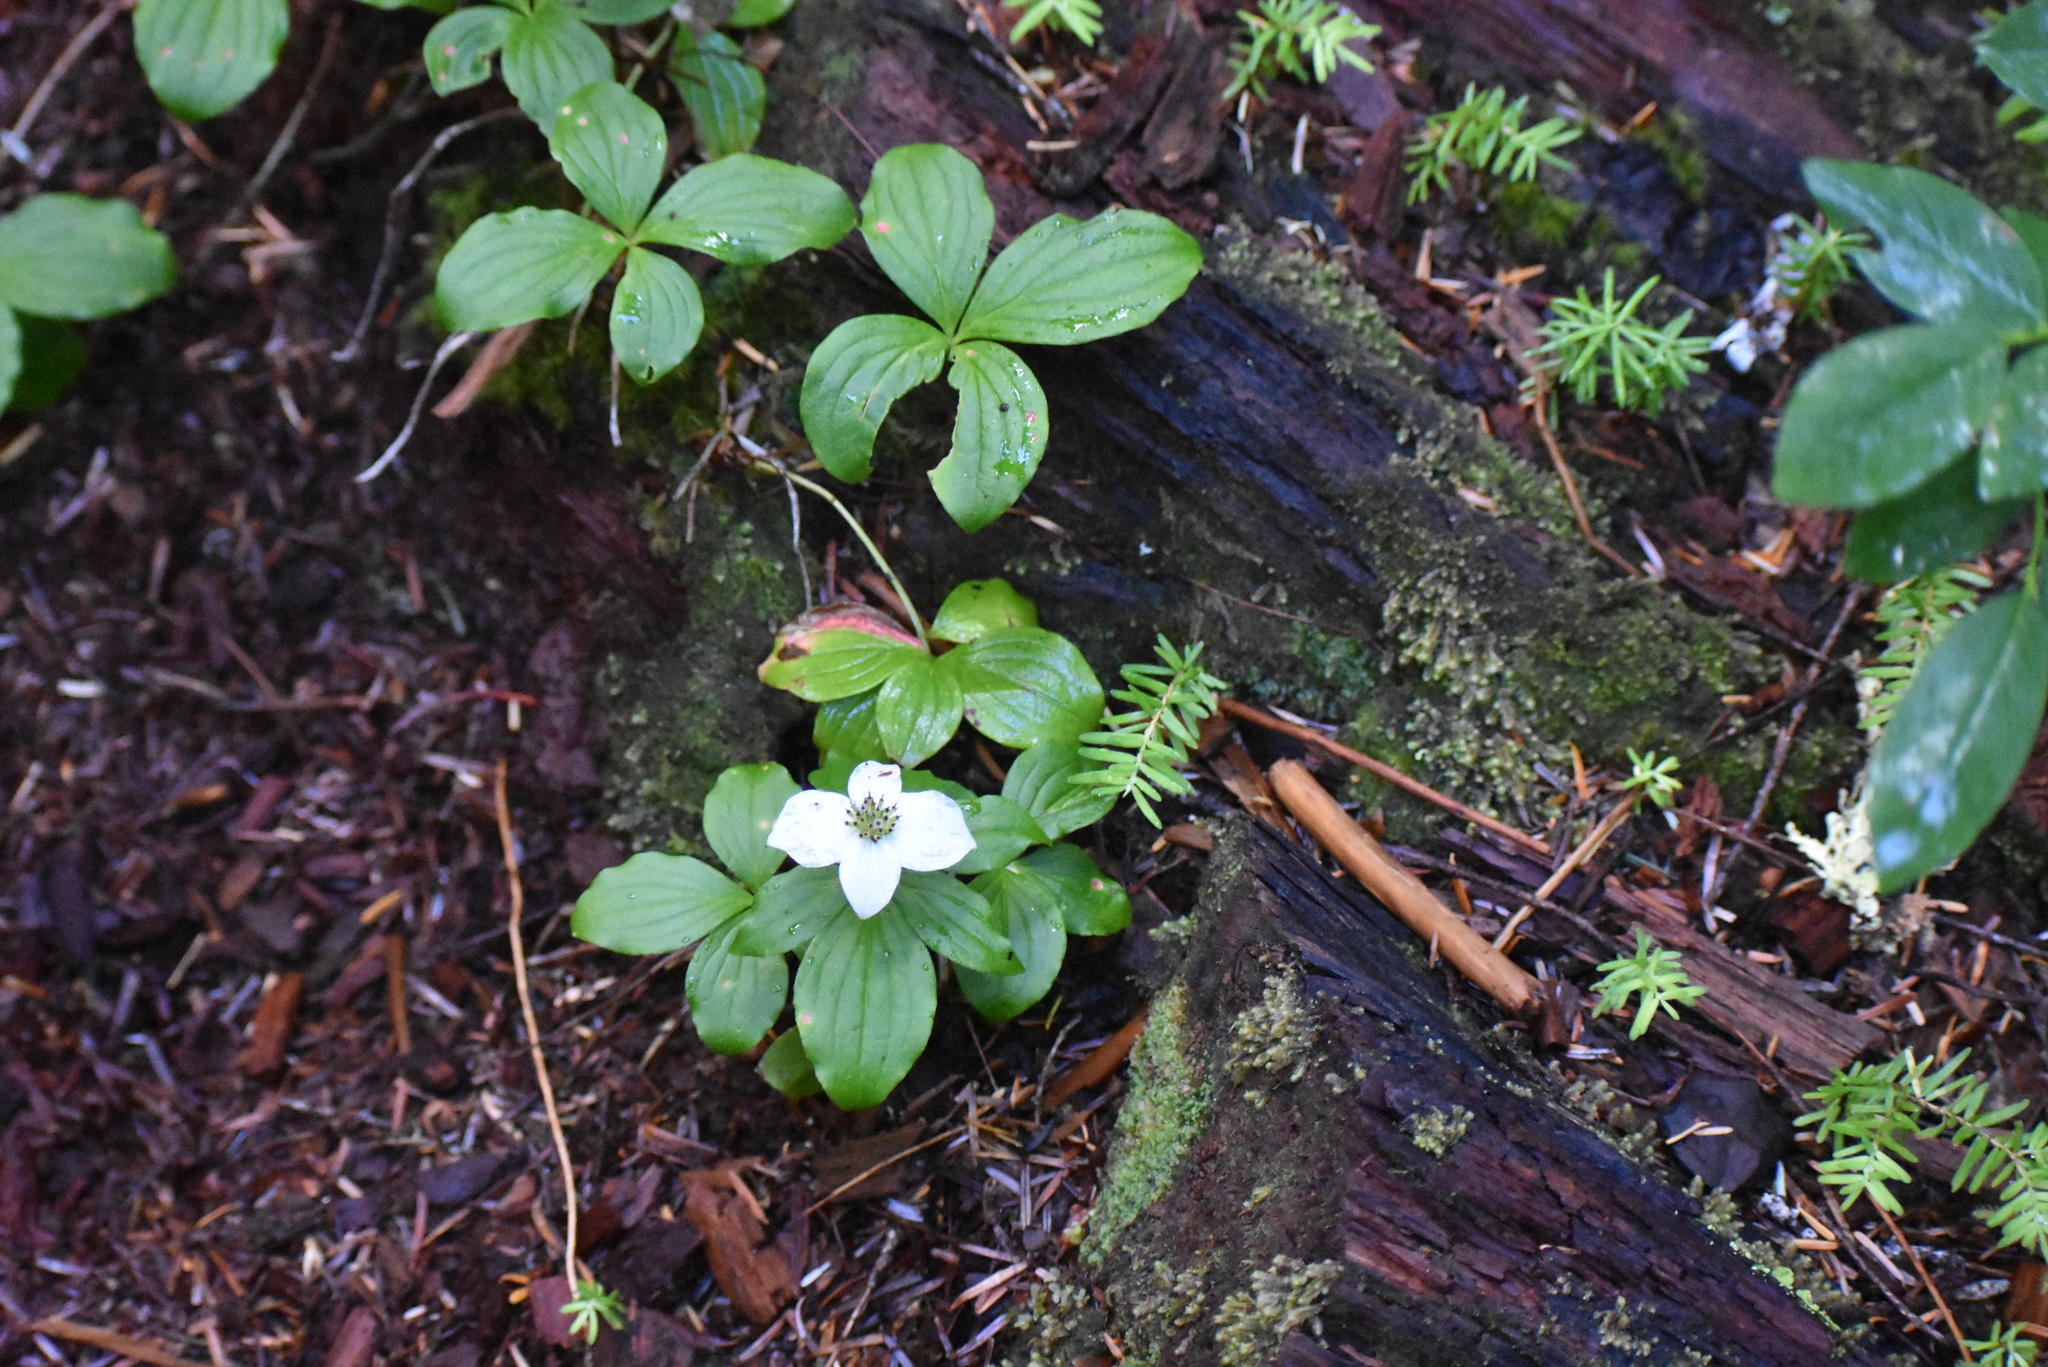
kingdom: Plantae
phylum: Tracheophyta
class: Magnoliopsida
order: Cornales
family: Cornaceae
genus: Cornus
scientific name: Cornus unalaschkensis
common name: Alaska bunchberry
